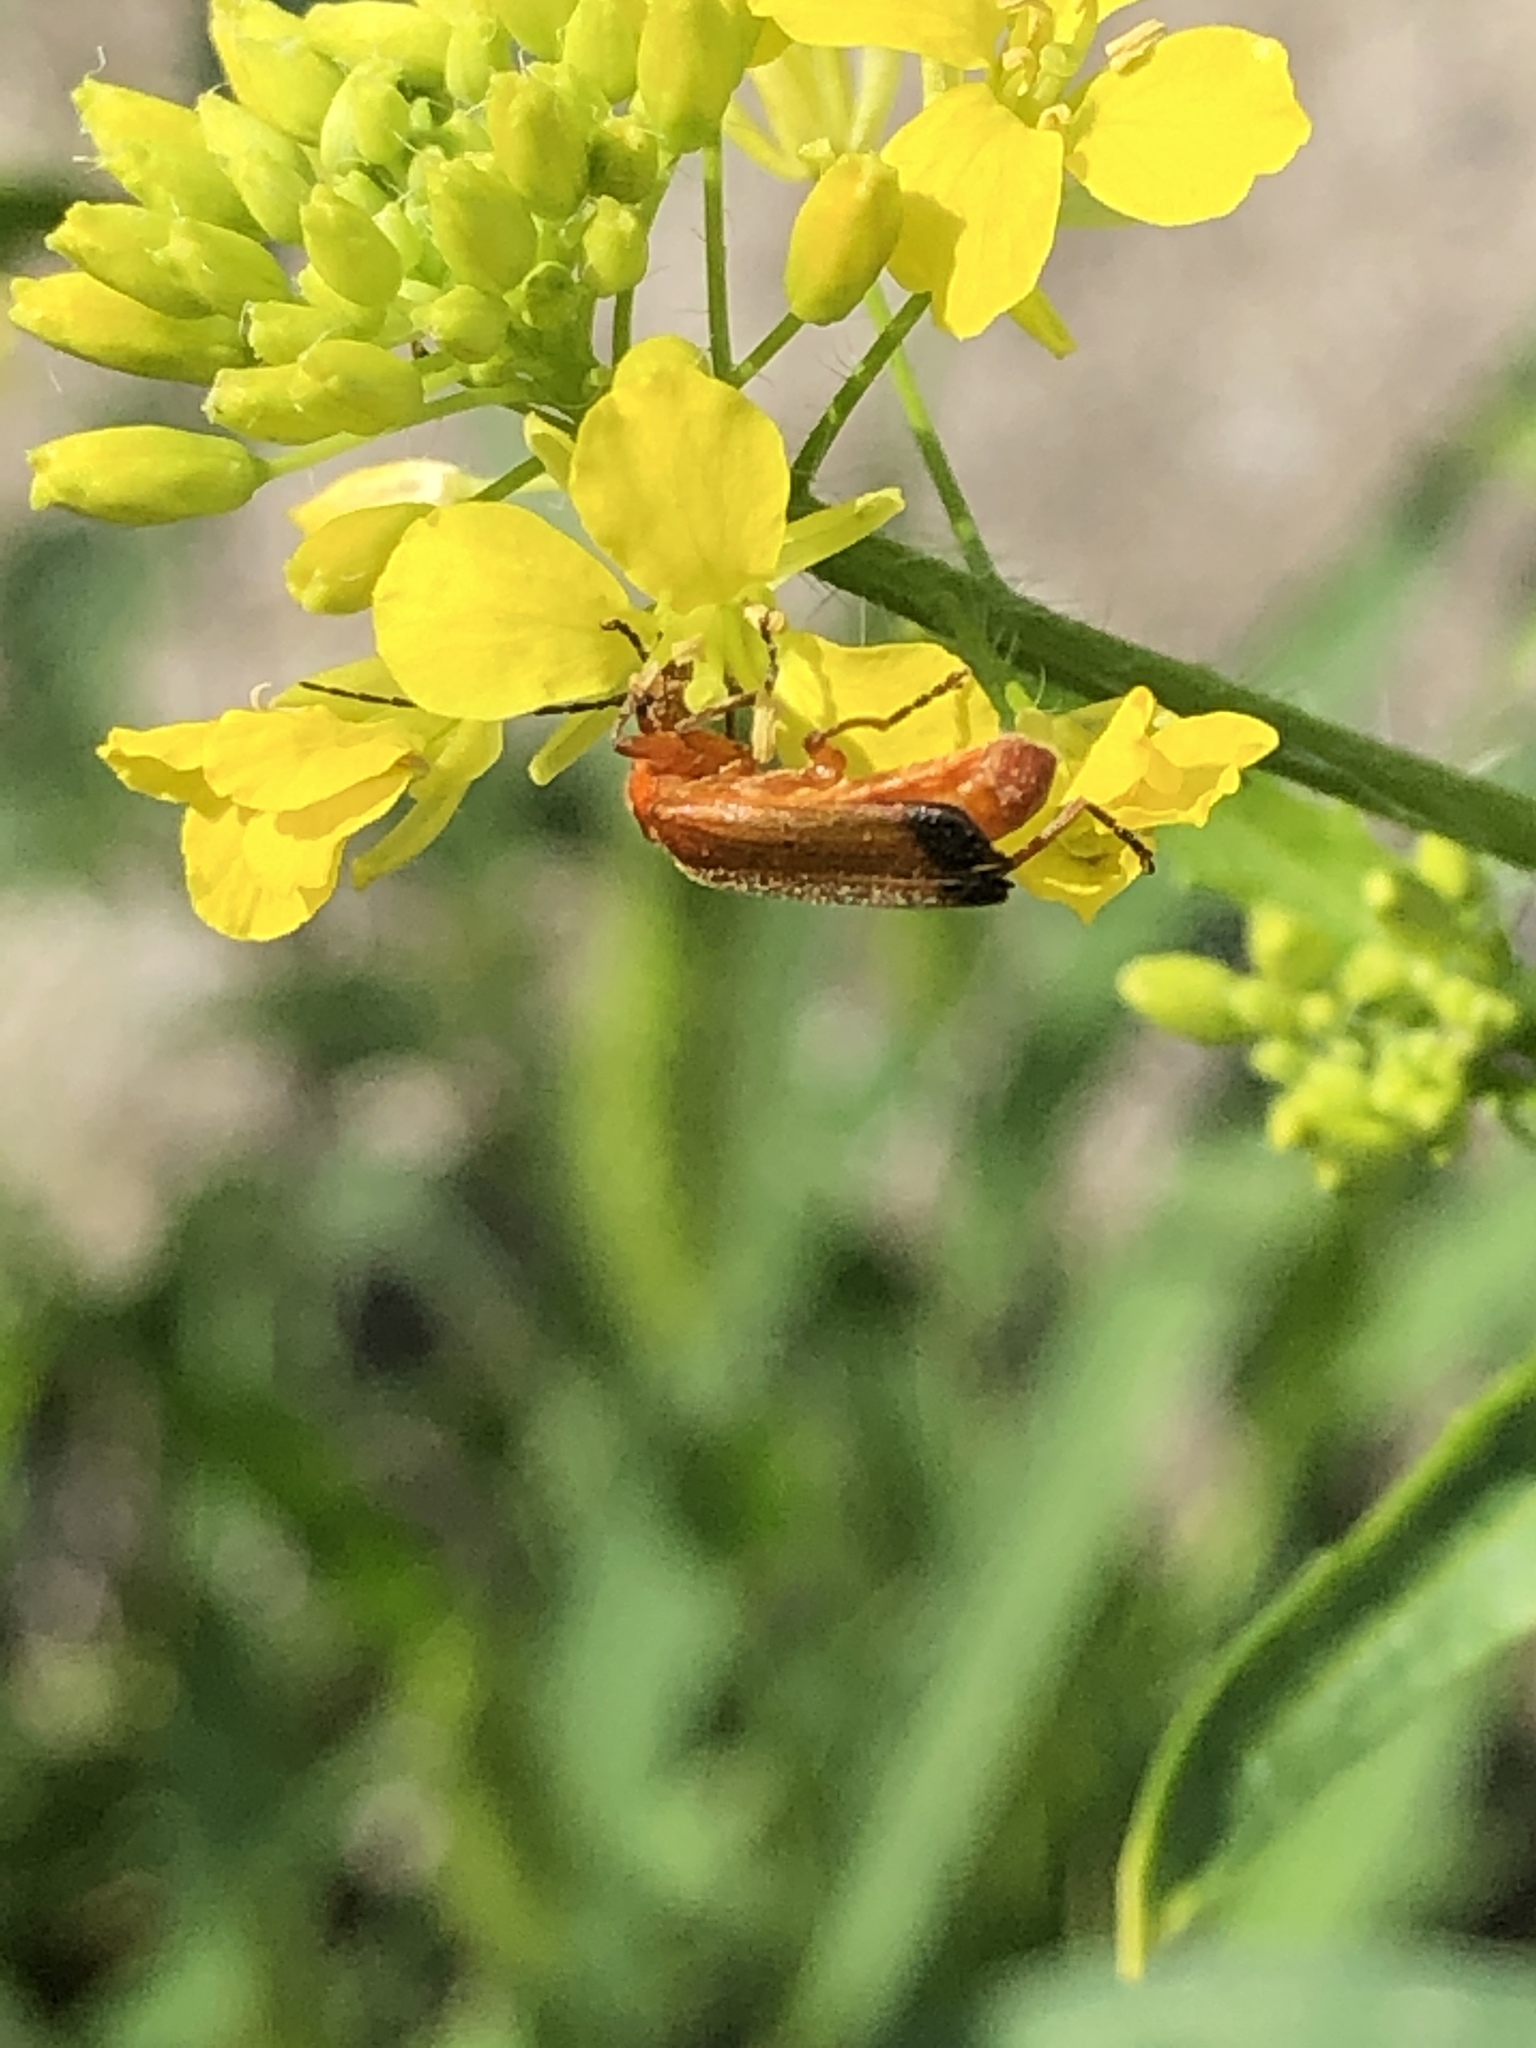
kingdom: Animalia
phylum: Arthropoda
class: Insecta
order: Coleoptera
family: Cantharidae
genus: Rhagonycha
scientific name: Rhagonycha fulva
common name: Common red soldier beetle
